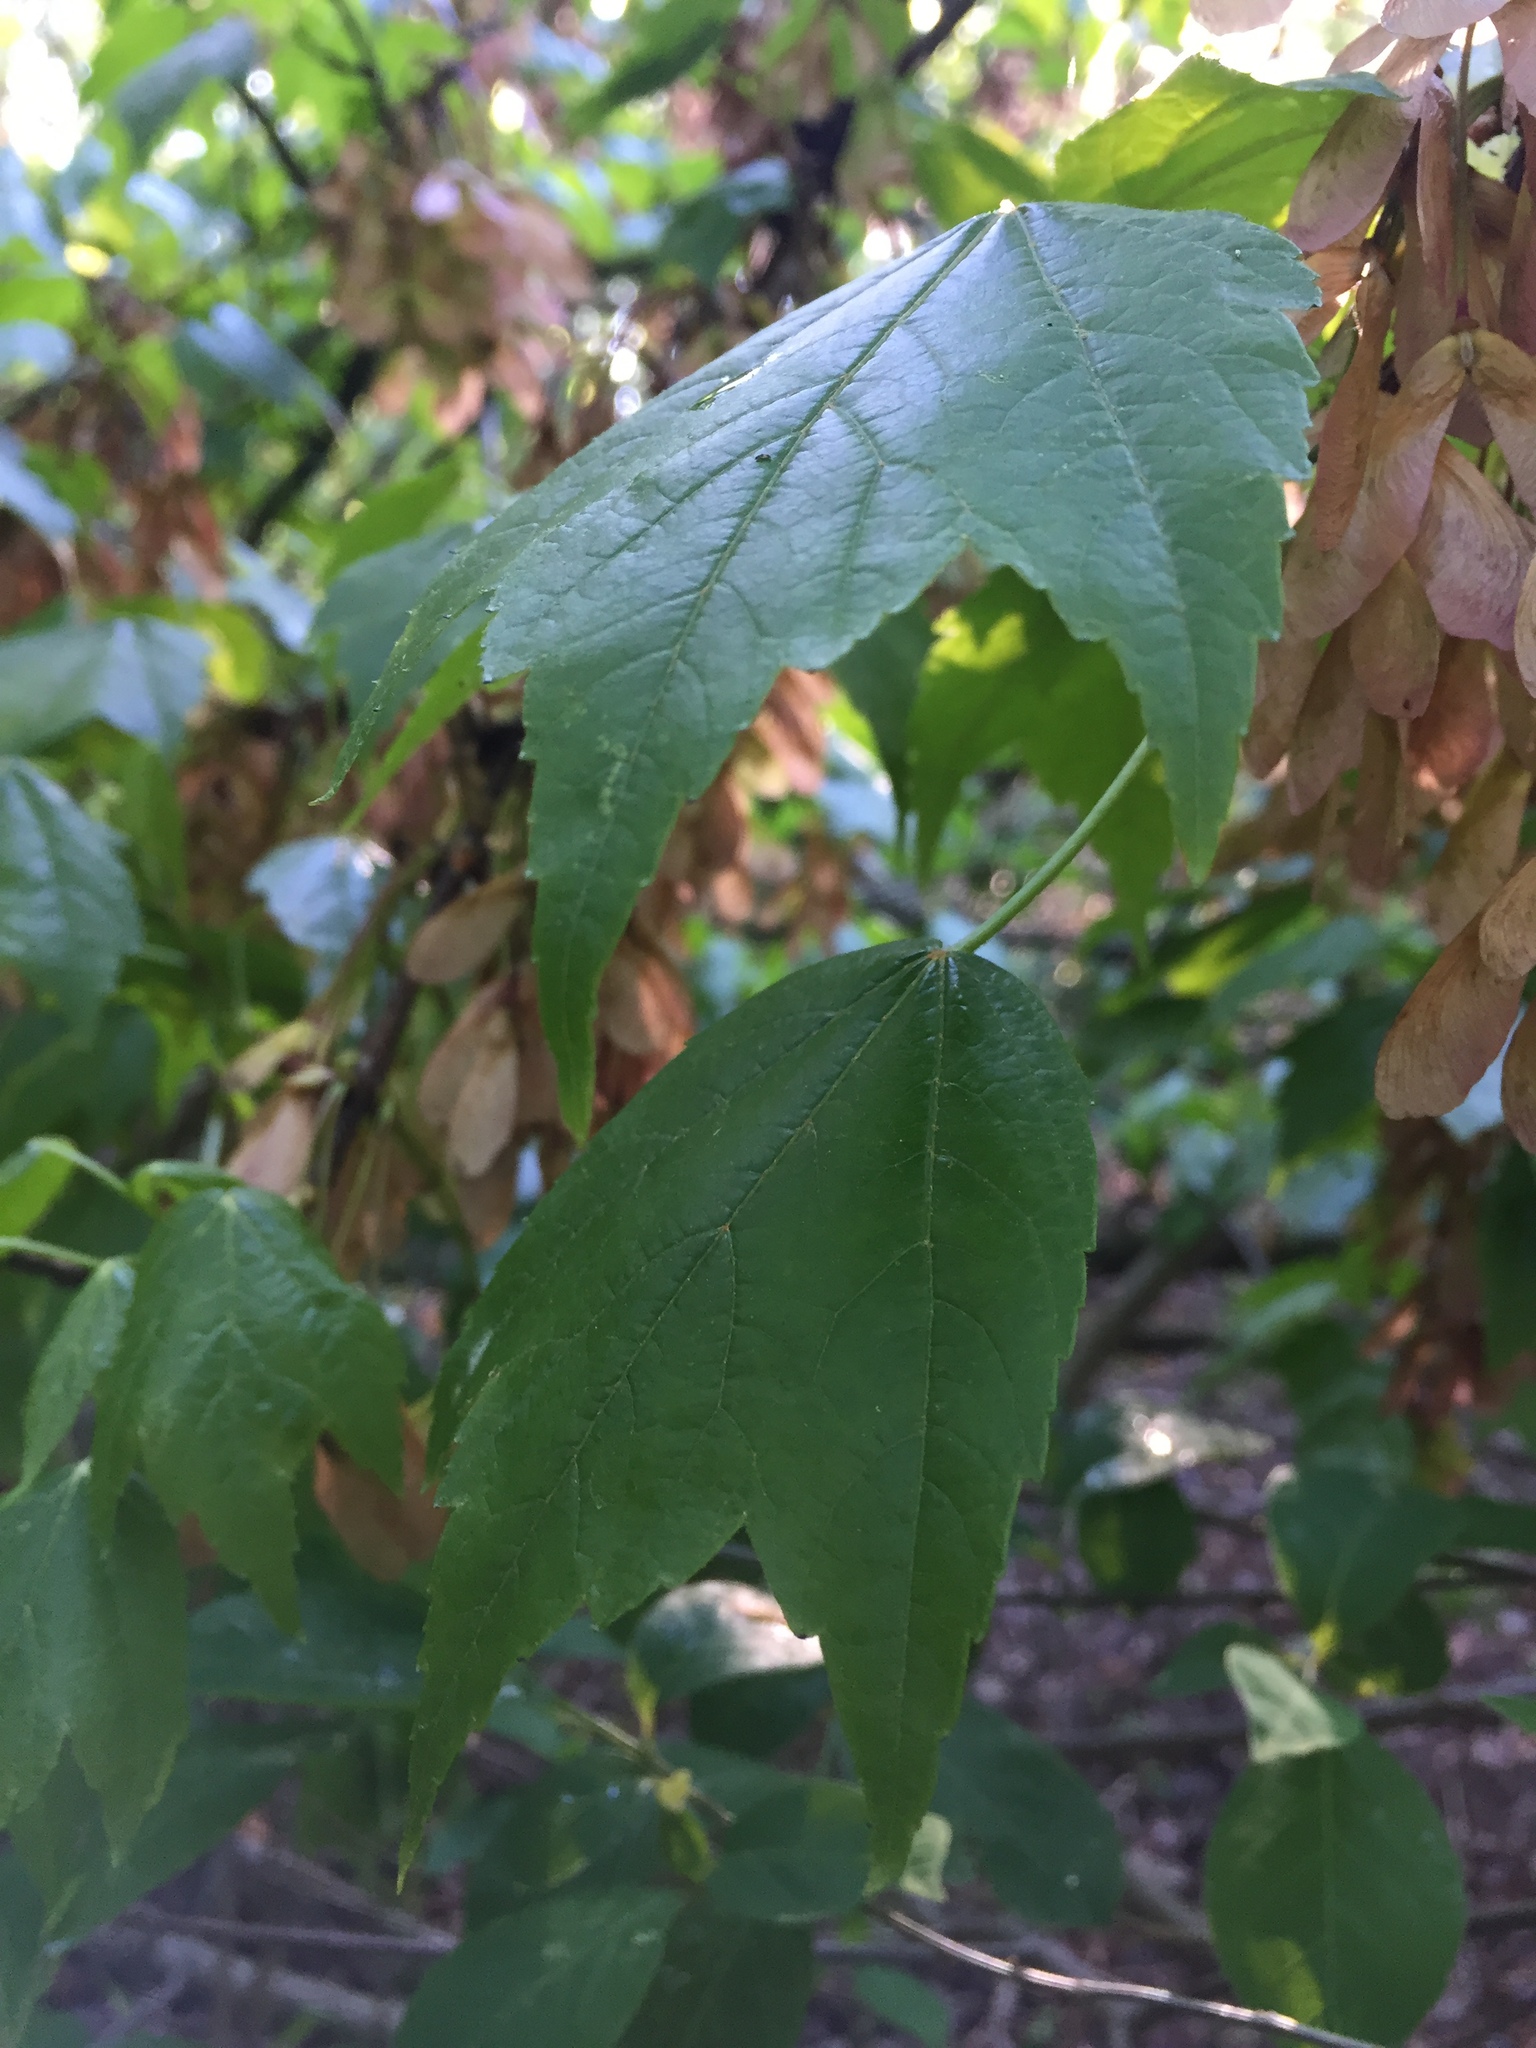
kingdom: Plantae
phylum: Tracheophyta
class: Magnoliopsida
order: Sapindales
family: Sapindaceae
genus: Acer
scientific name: Acer rubrum
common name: Red maple
